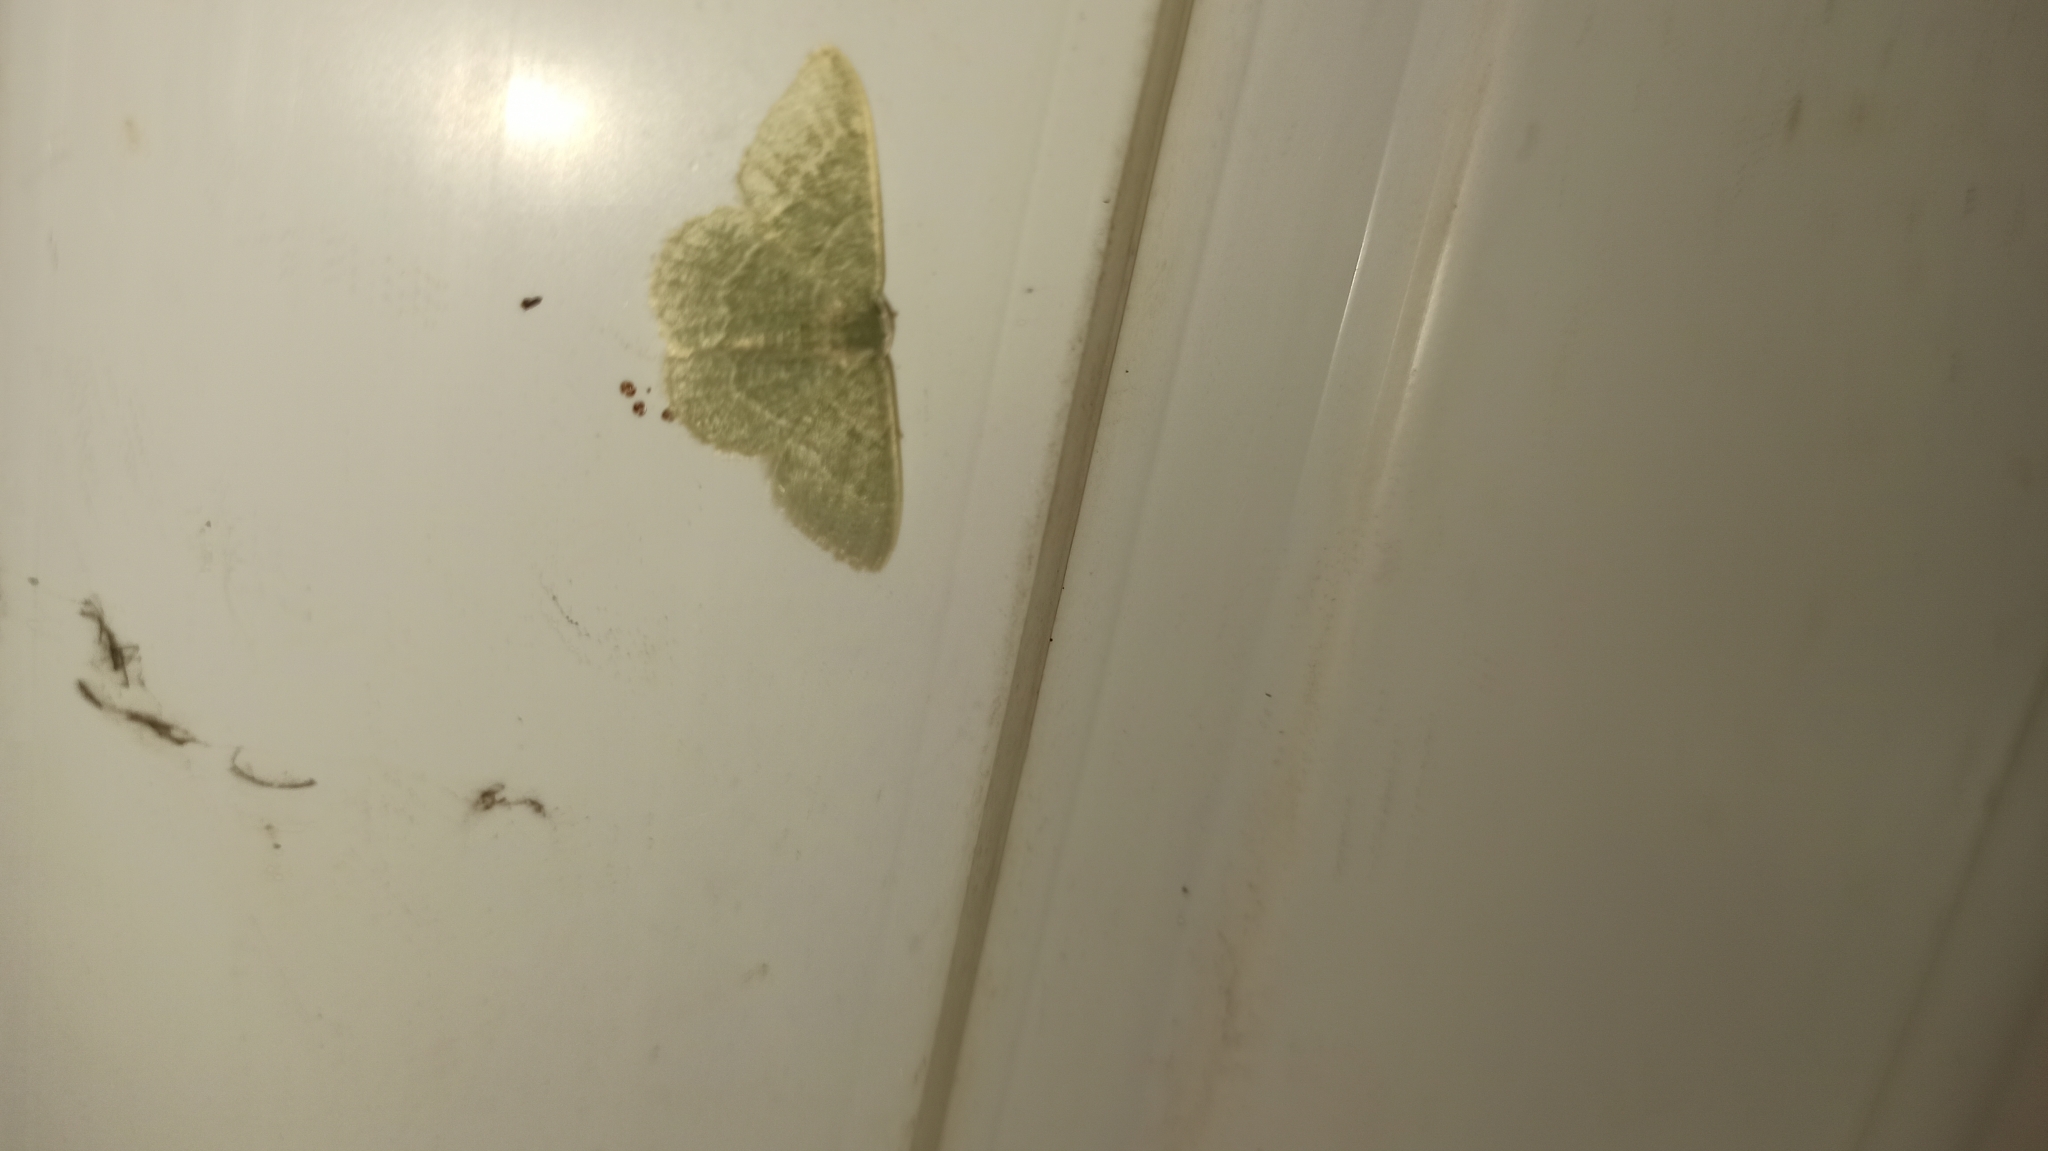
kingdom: Animalia
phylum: Arthropoda
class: Insecta
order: Lepidoptera
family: Geometridae
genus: Chlorissa
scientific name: Chlorissa etruscaria
